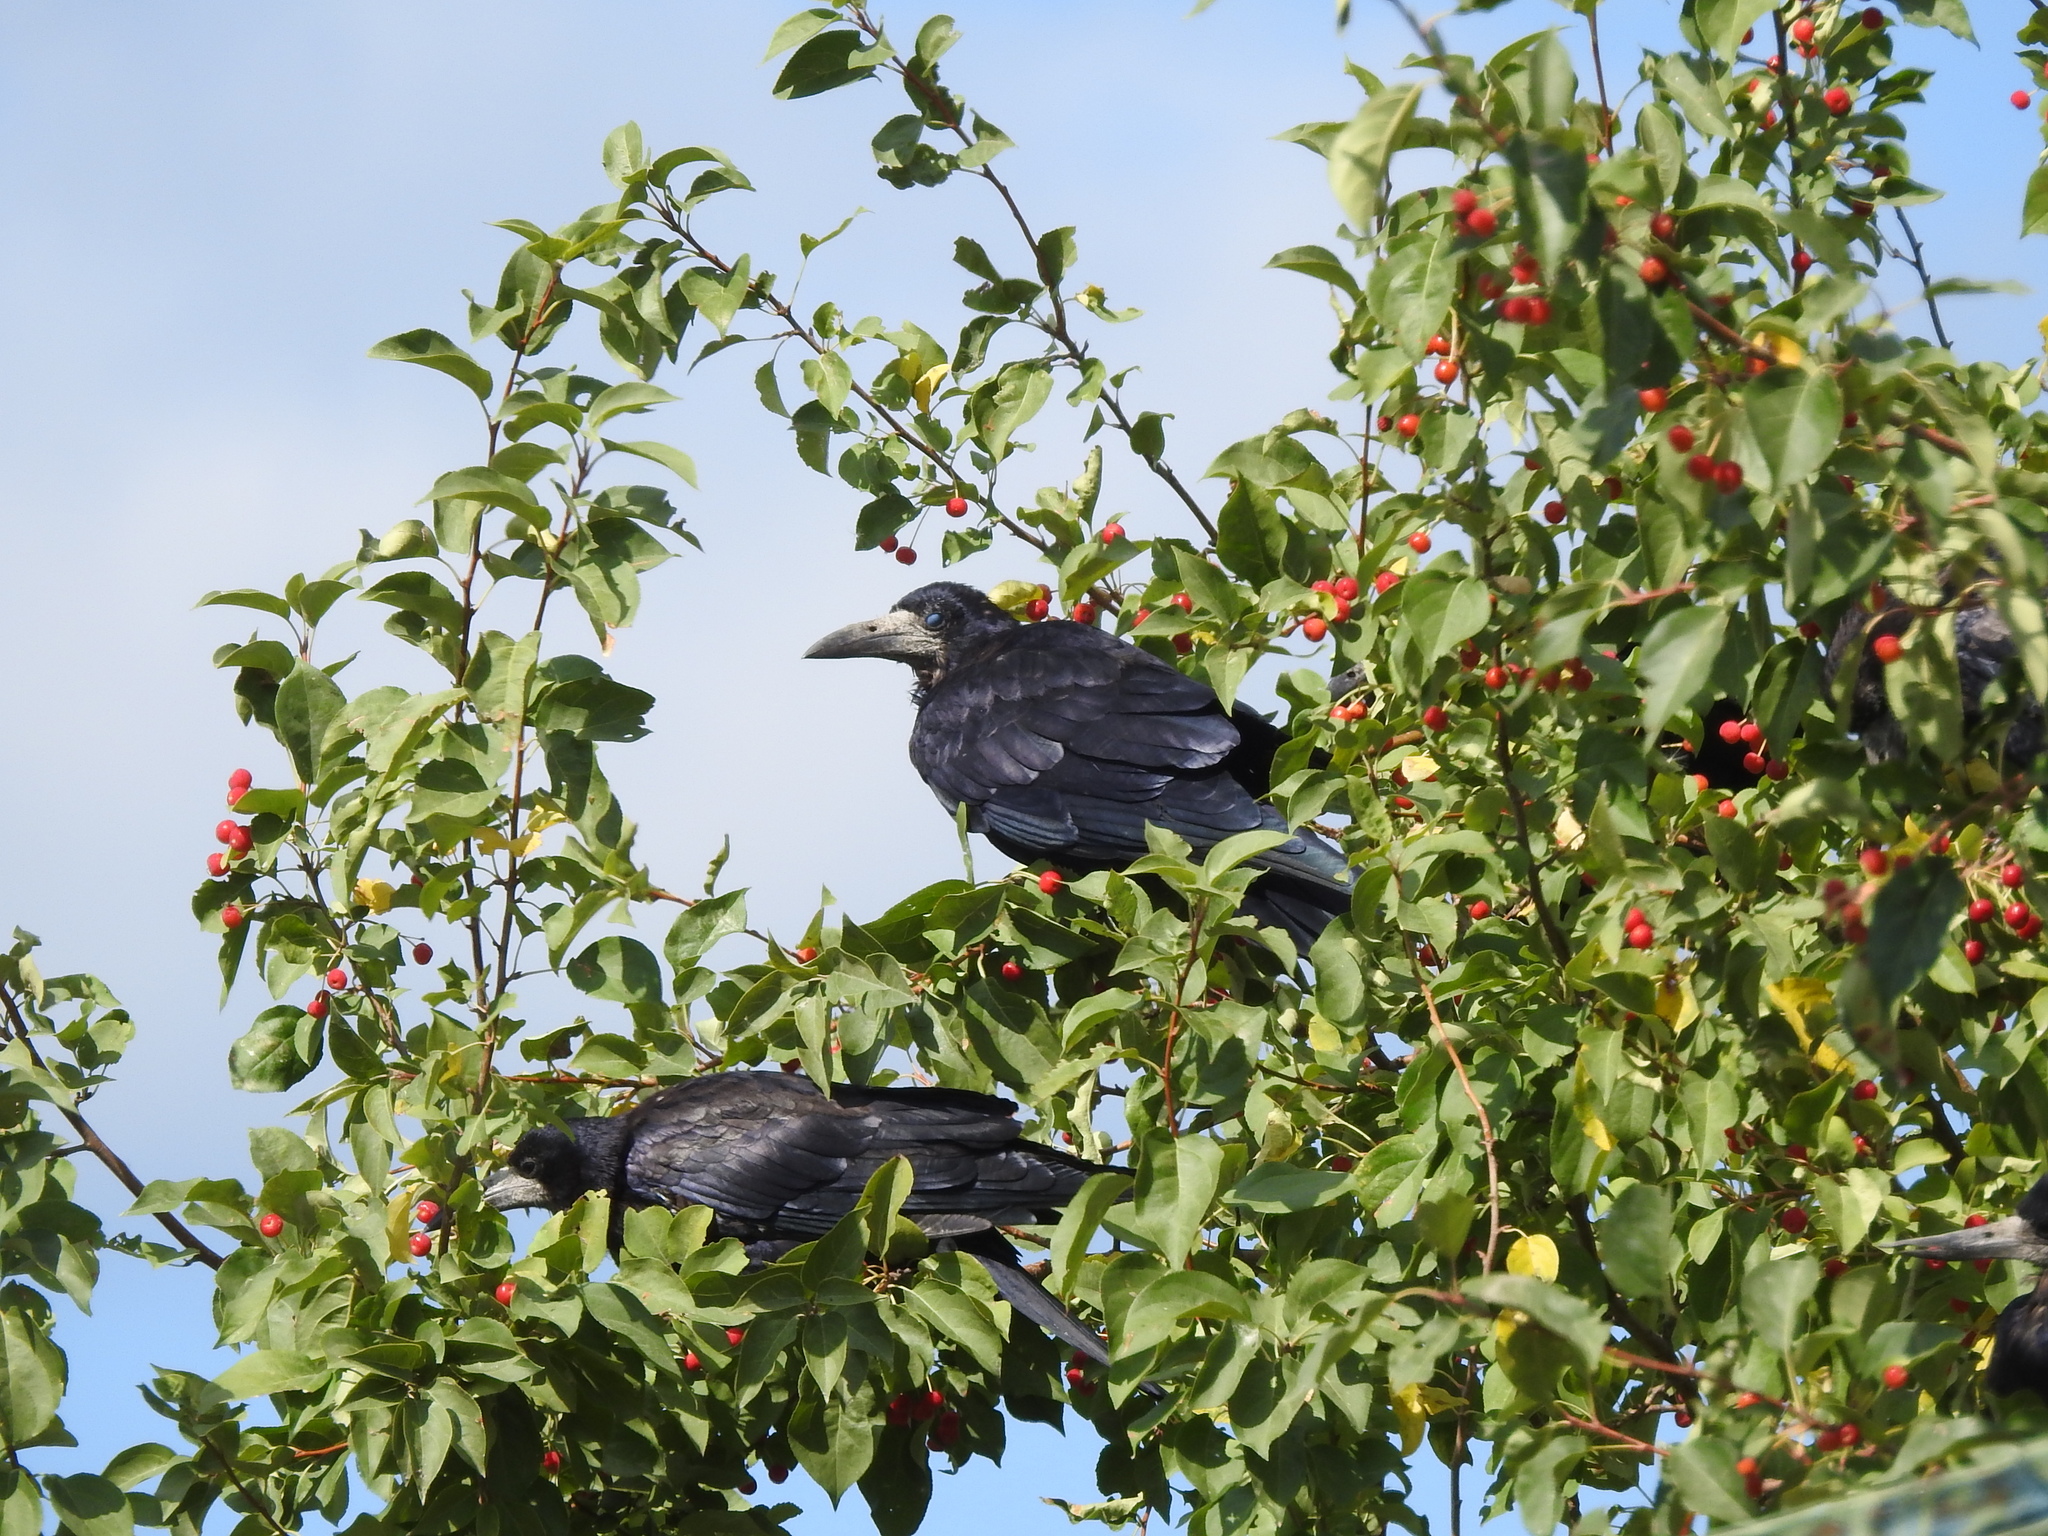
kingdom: Animalia
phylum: Chordata
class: Aves
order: Passeriformes
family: Corvidae
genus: Corvus
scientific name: Corvus frugilegus
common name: Rook
